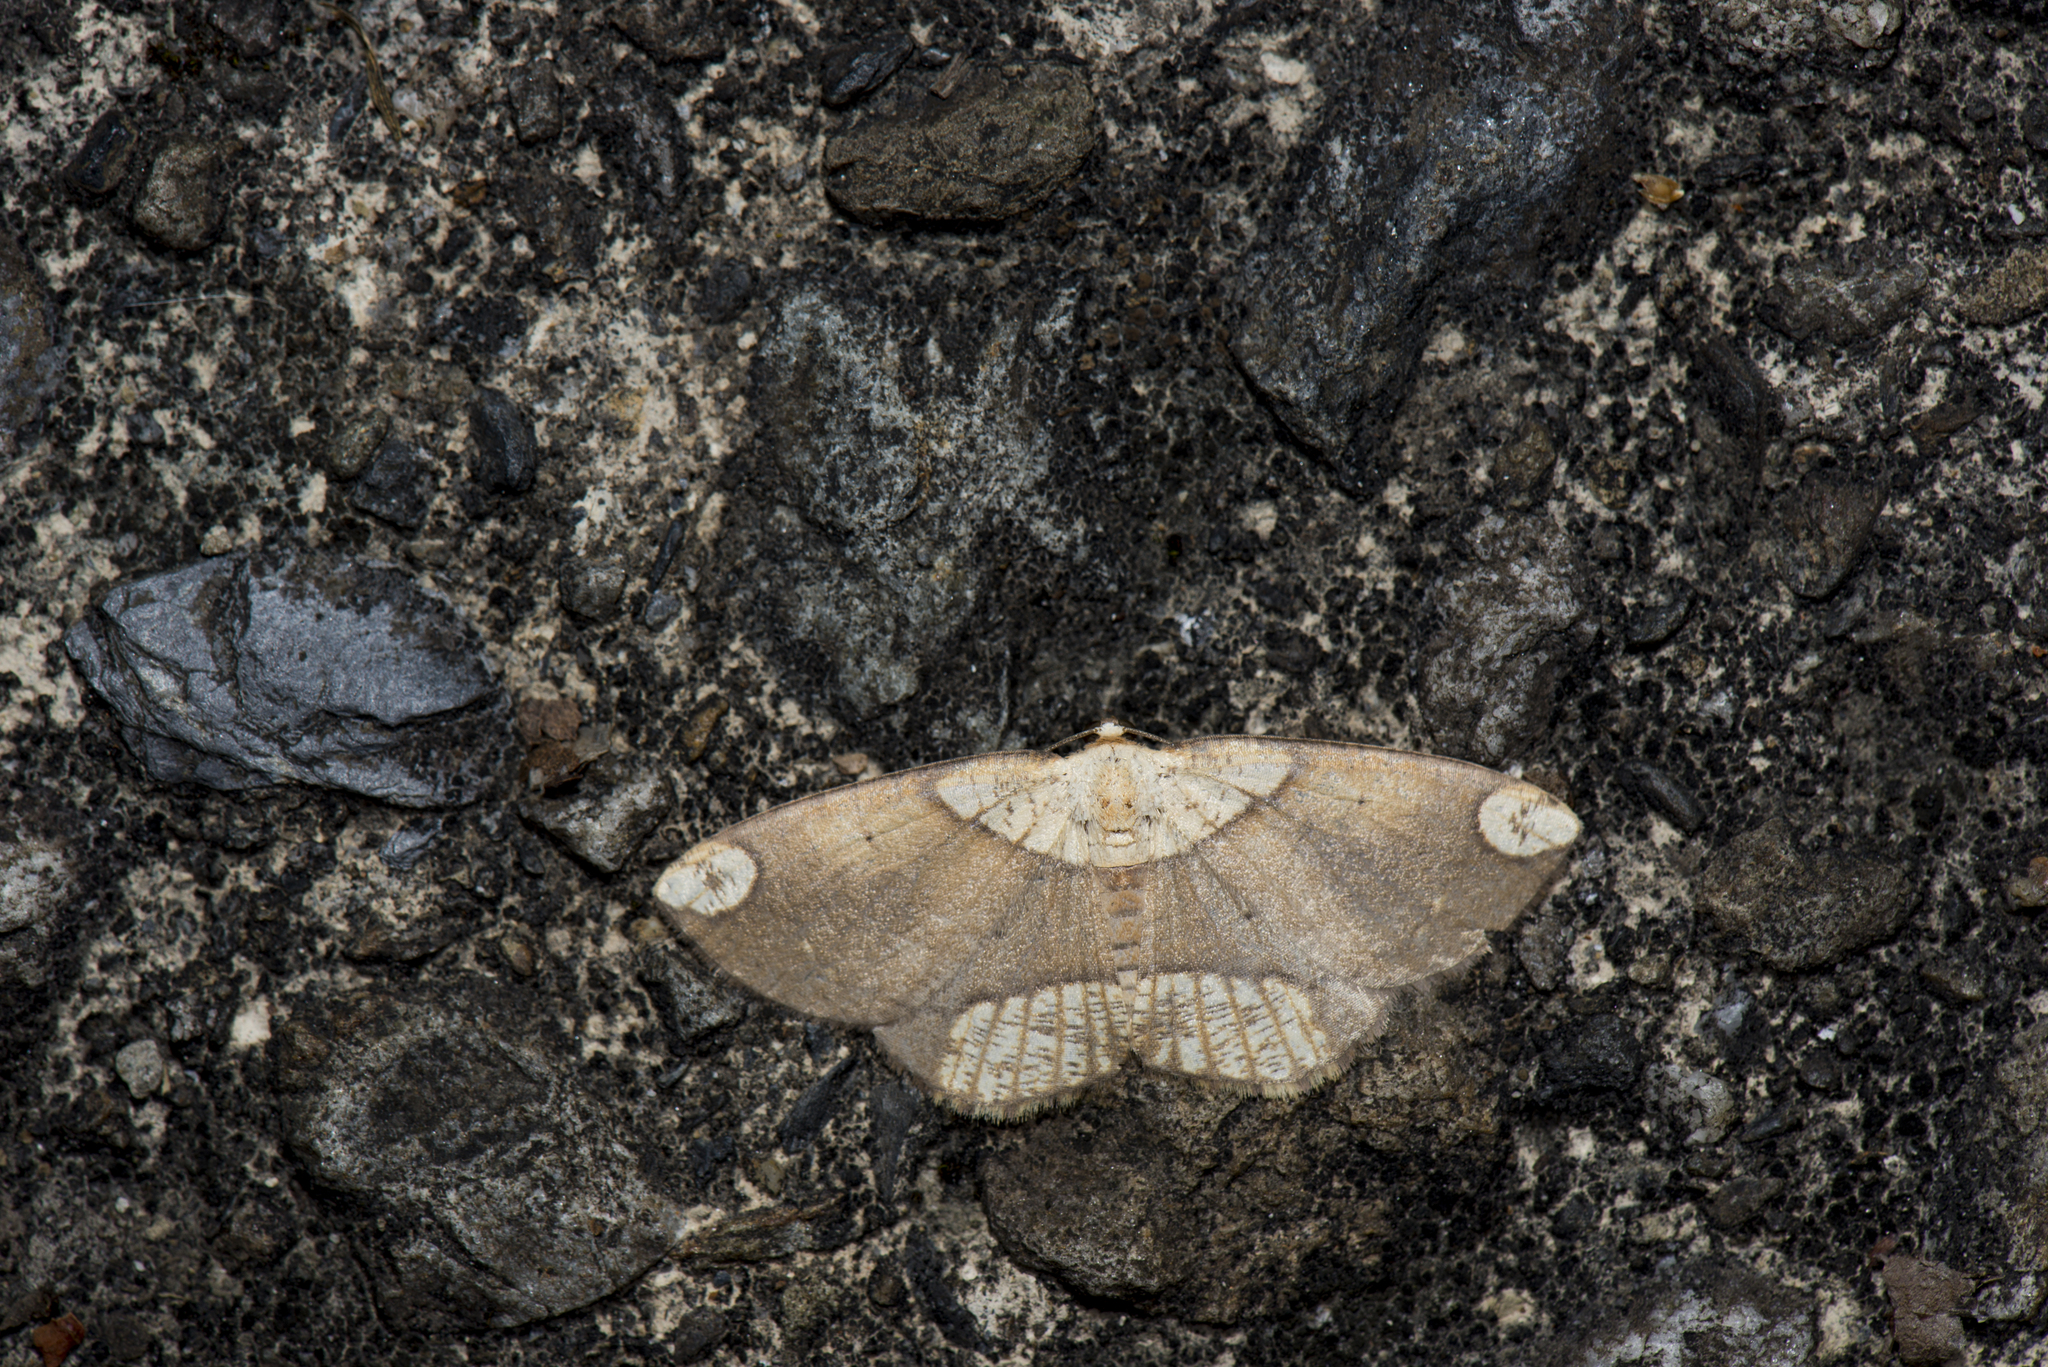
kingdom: Animalia
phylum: Arthropoda
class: Insecta
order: Lepidoptera
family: Geometridae
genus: Platycerota
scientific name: Platycerota particolor
